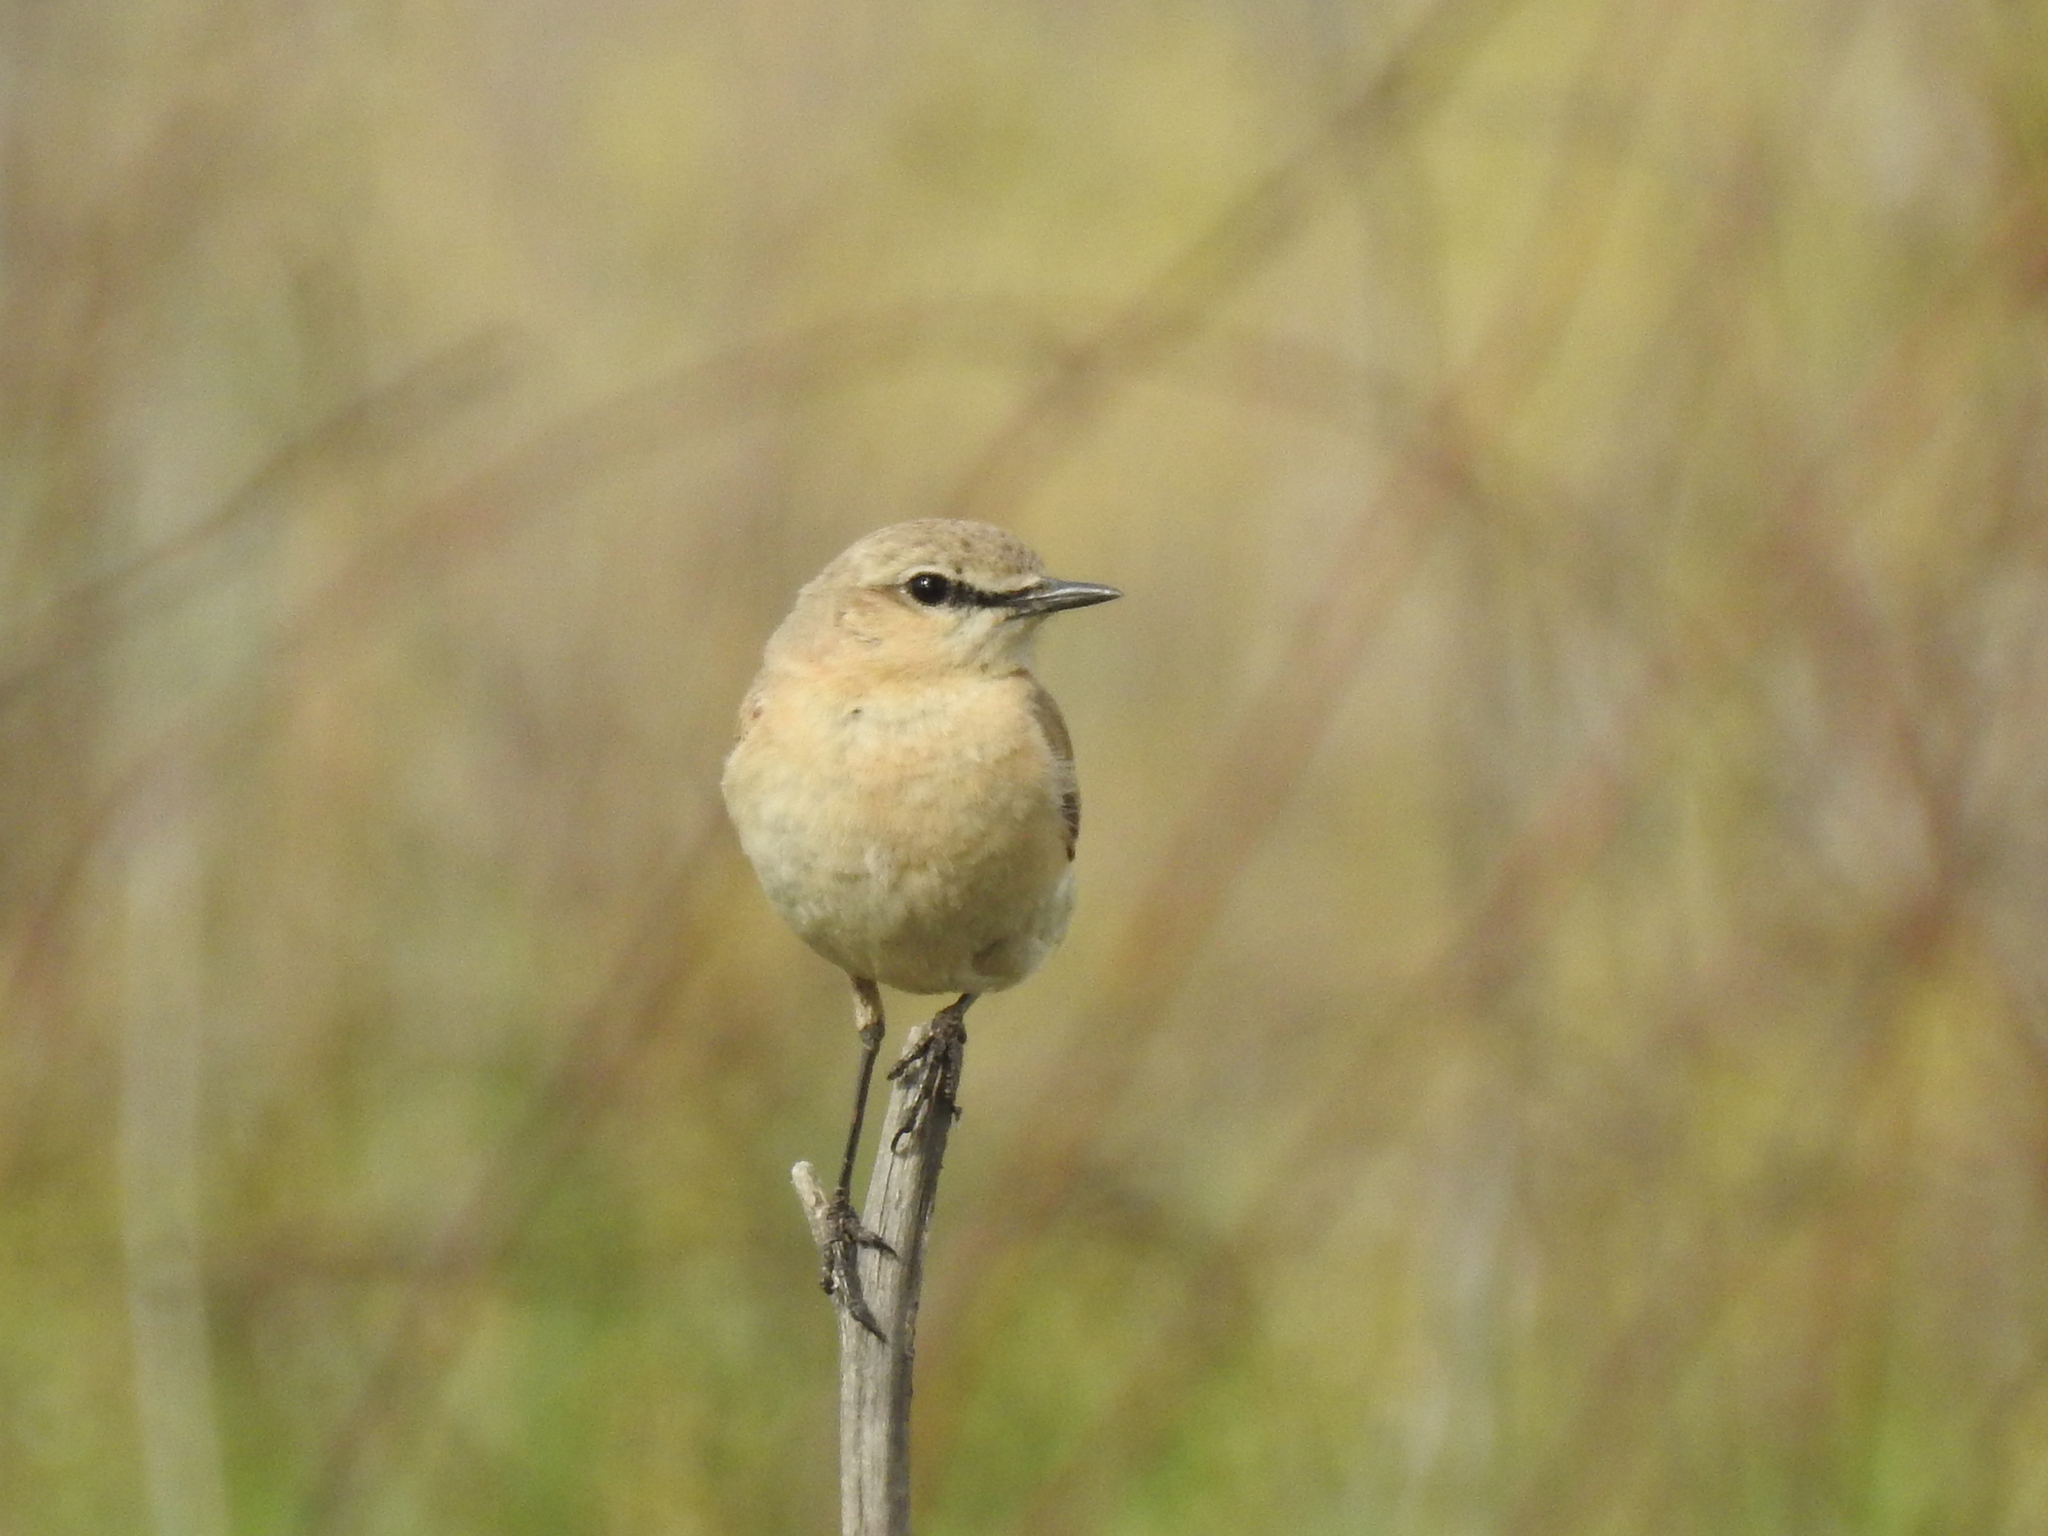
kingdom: Animalia
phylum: Chordata
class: Aves
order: Passeriformes
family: Muscicapidae
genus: Oenanthe
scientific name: Oenanthe isabellina
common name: Isabelline wheatear
